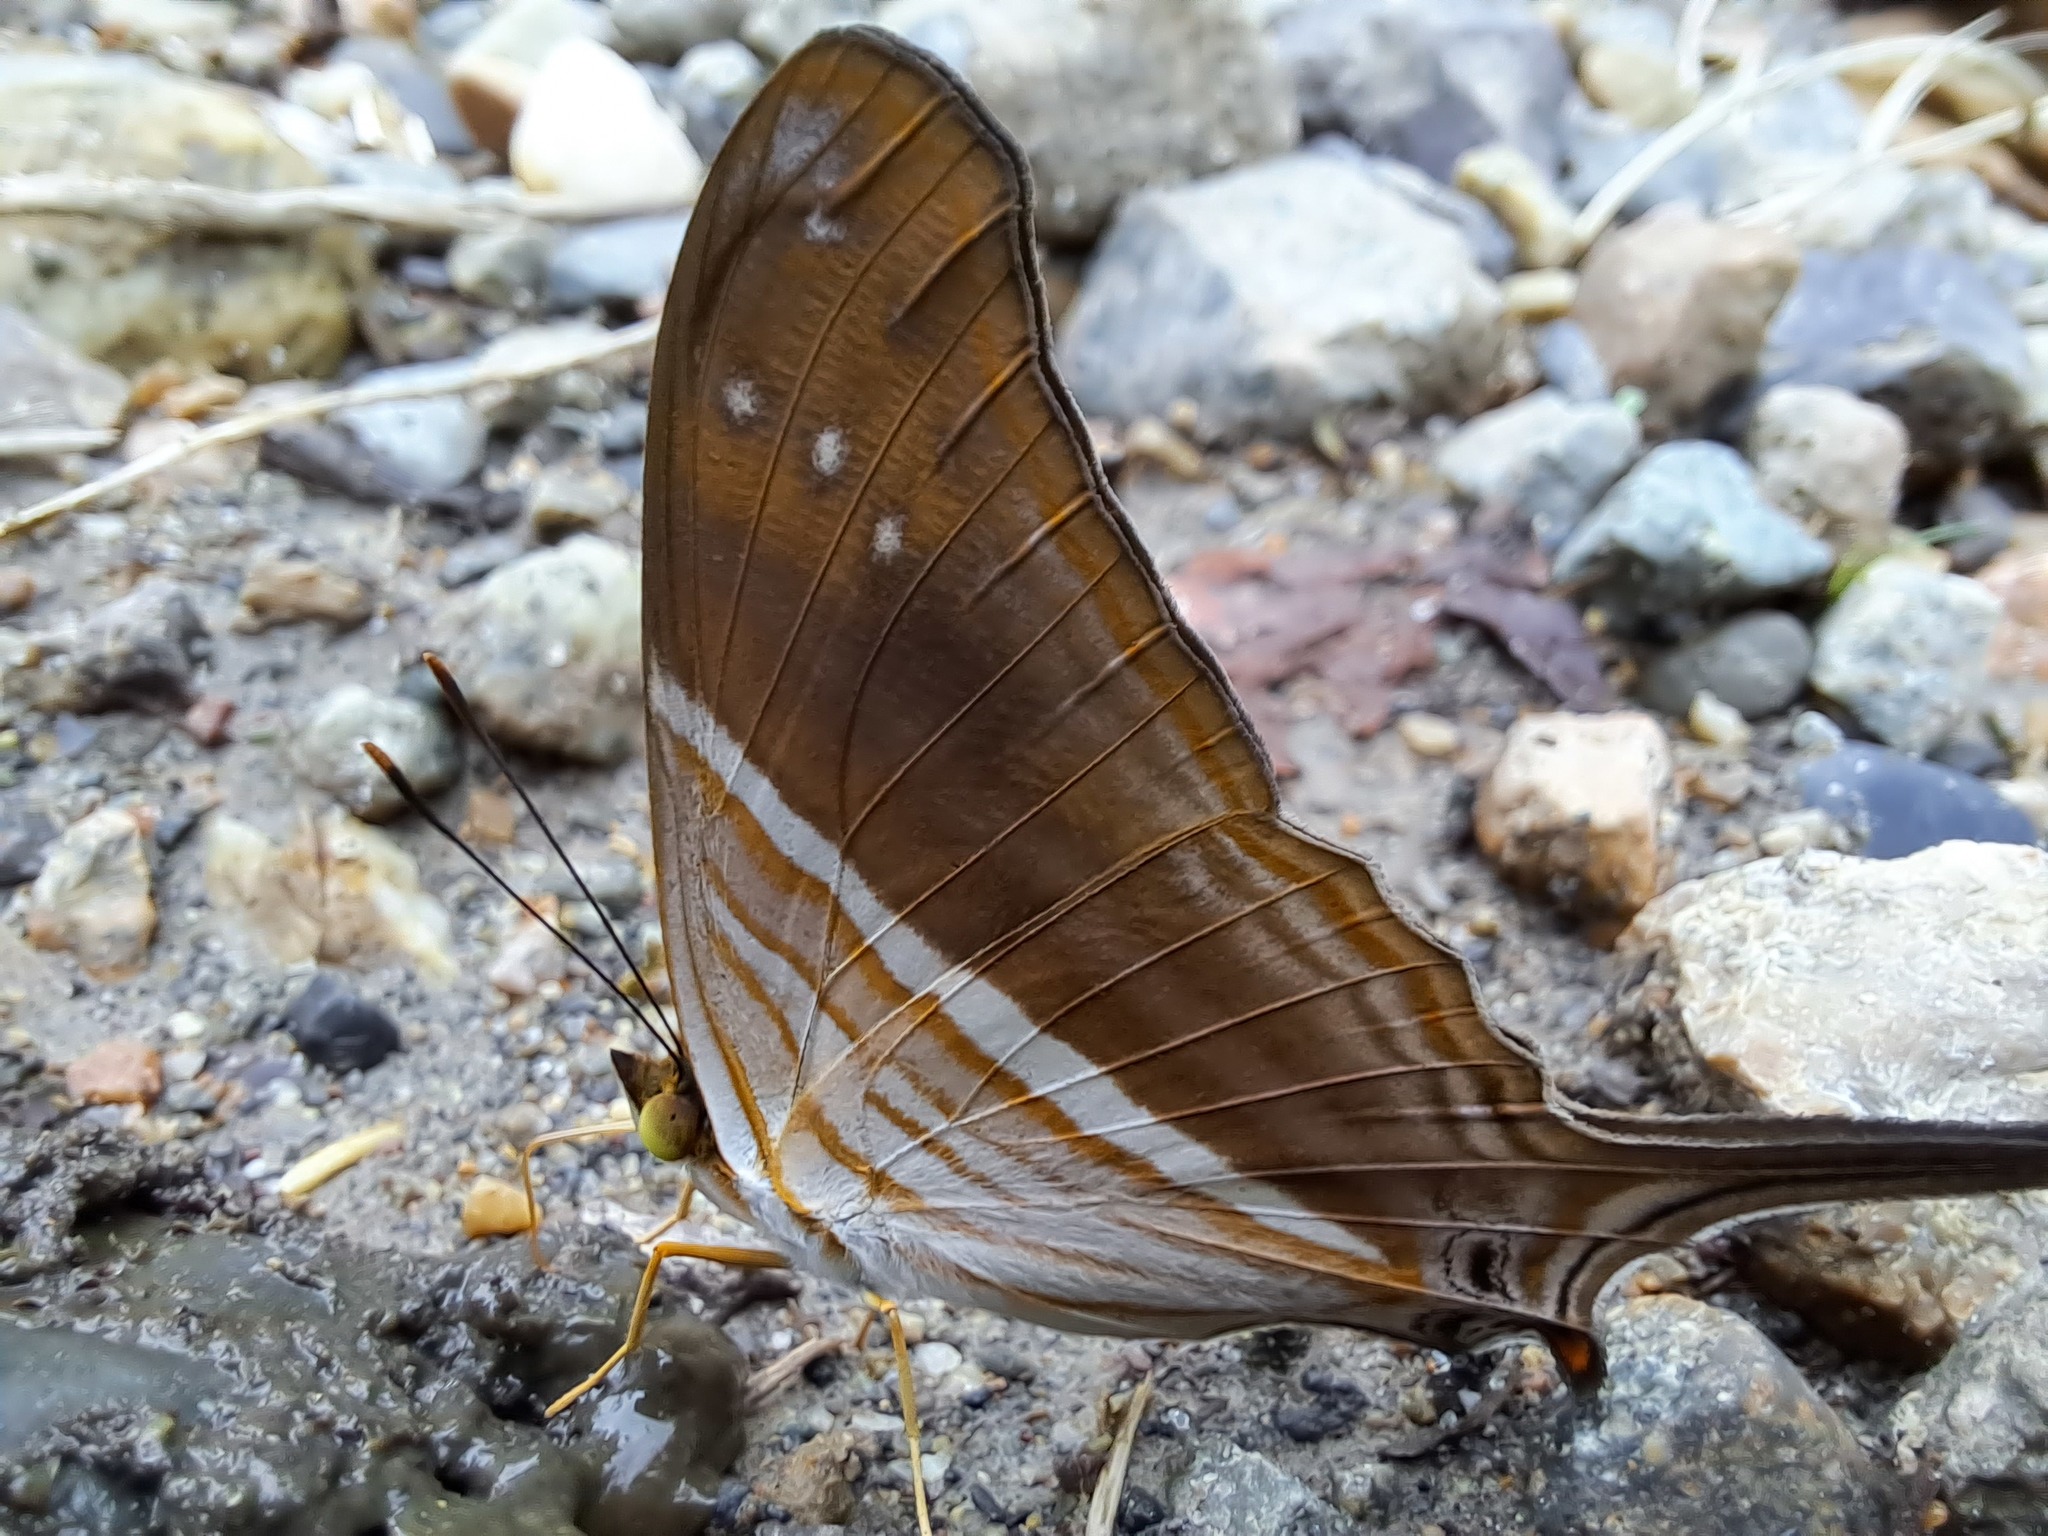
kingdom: Animalia
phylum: Arthropoda
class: Insecta
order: Lepidoptera
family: Nymphalidae
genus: Marpesia
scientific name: Marpesia chiron
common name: Many-banded daggerwing
